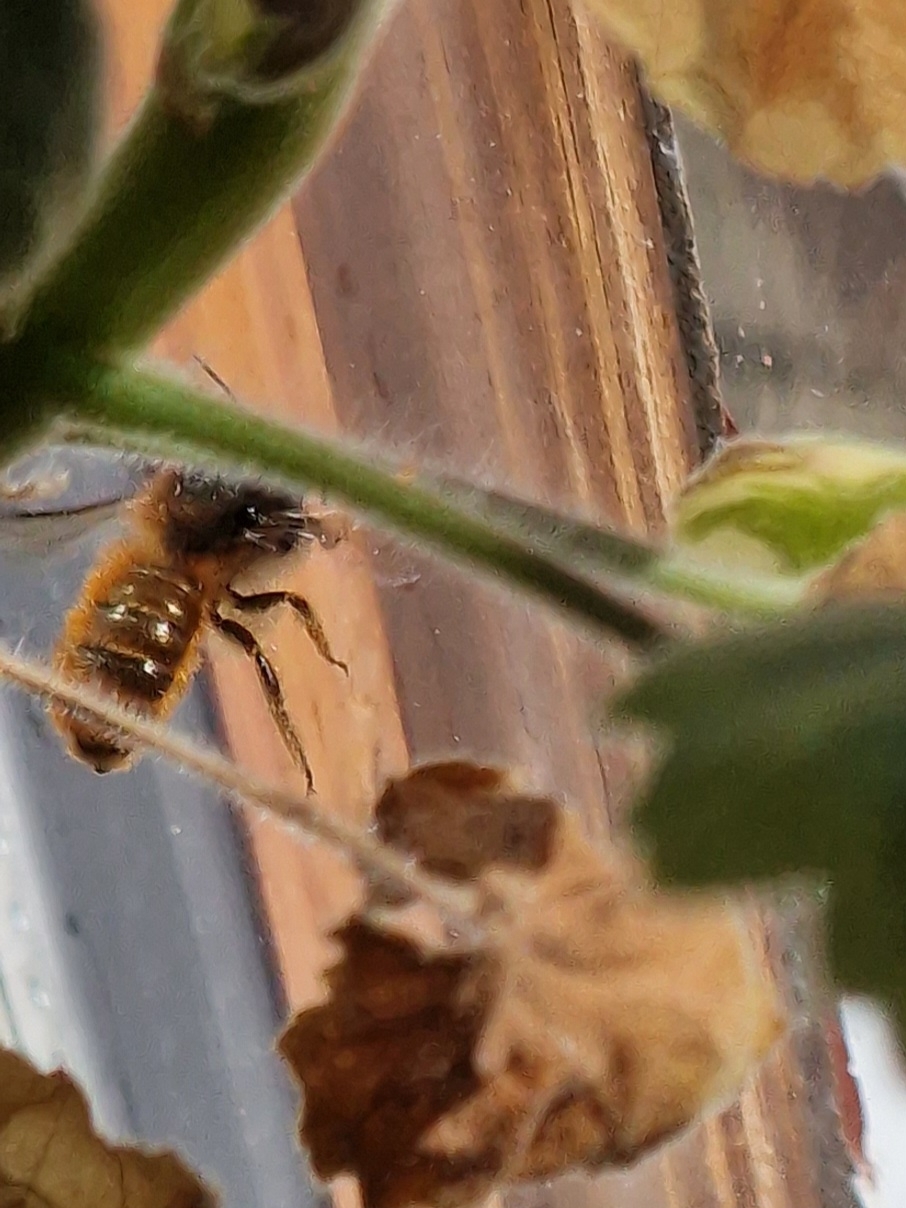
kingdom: Animalia
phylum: Arthropoda
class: Insecta
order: Hymenoptera
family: Megachilidae
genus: Osmia
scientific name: Osmia bicornis
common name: Red mason bee
